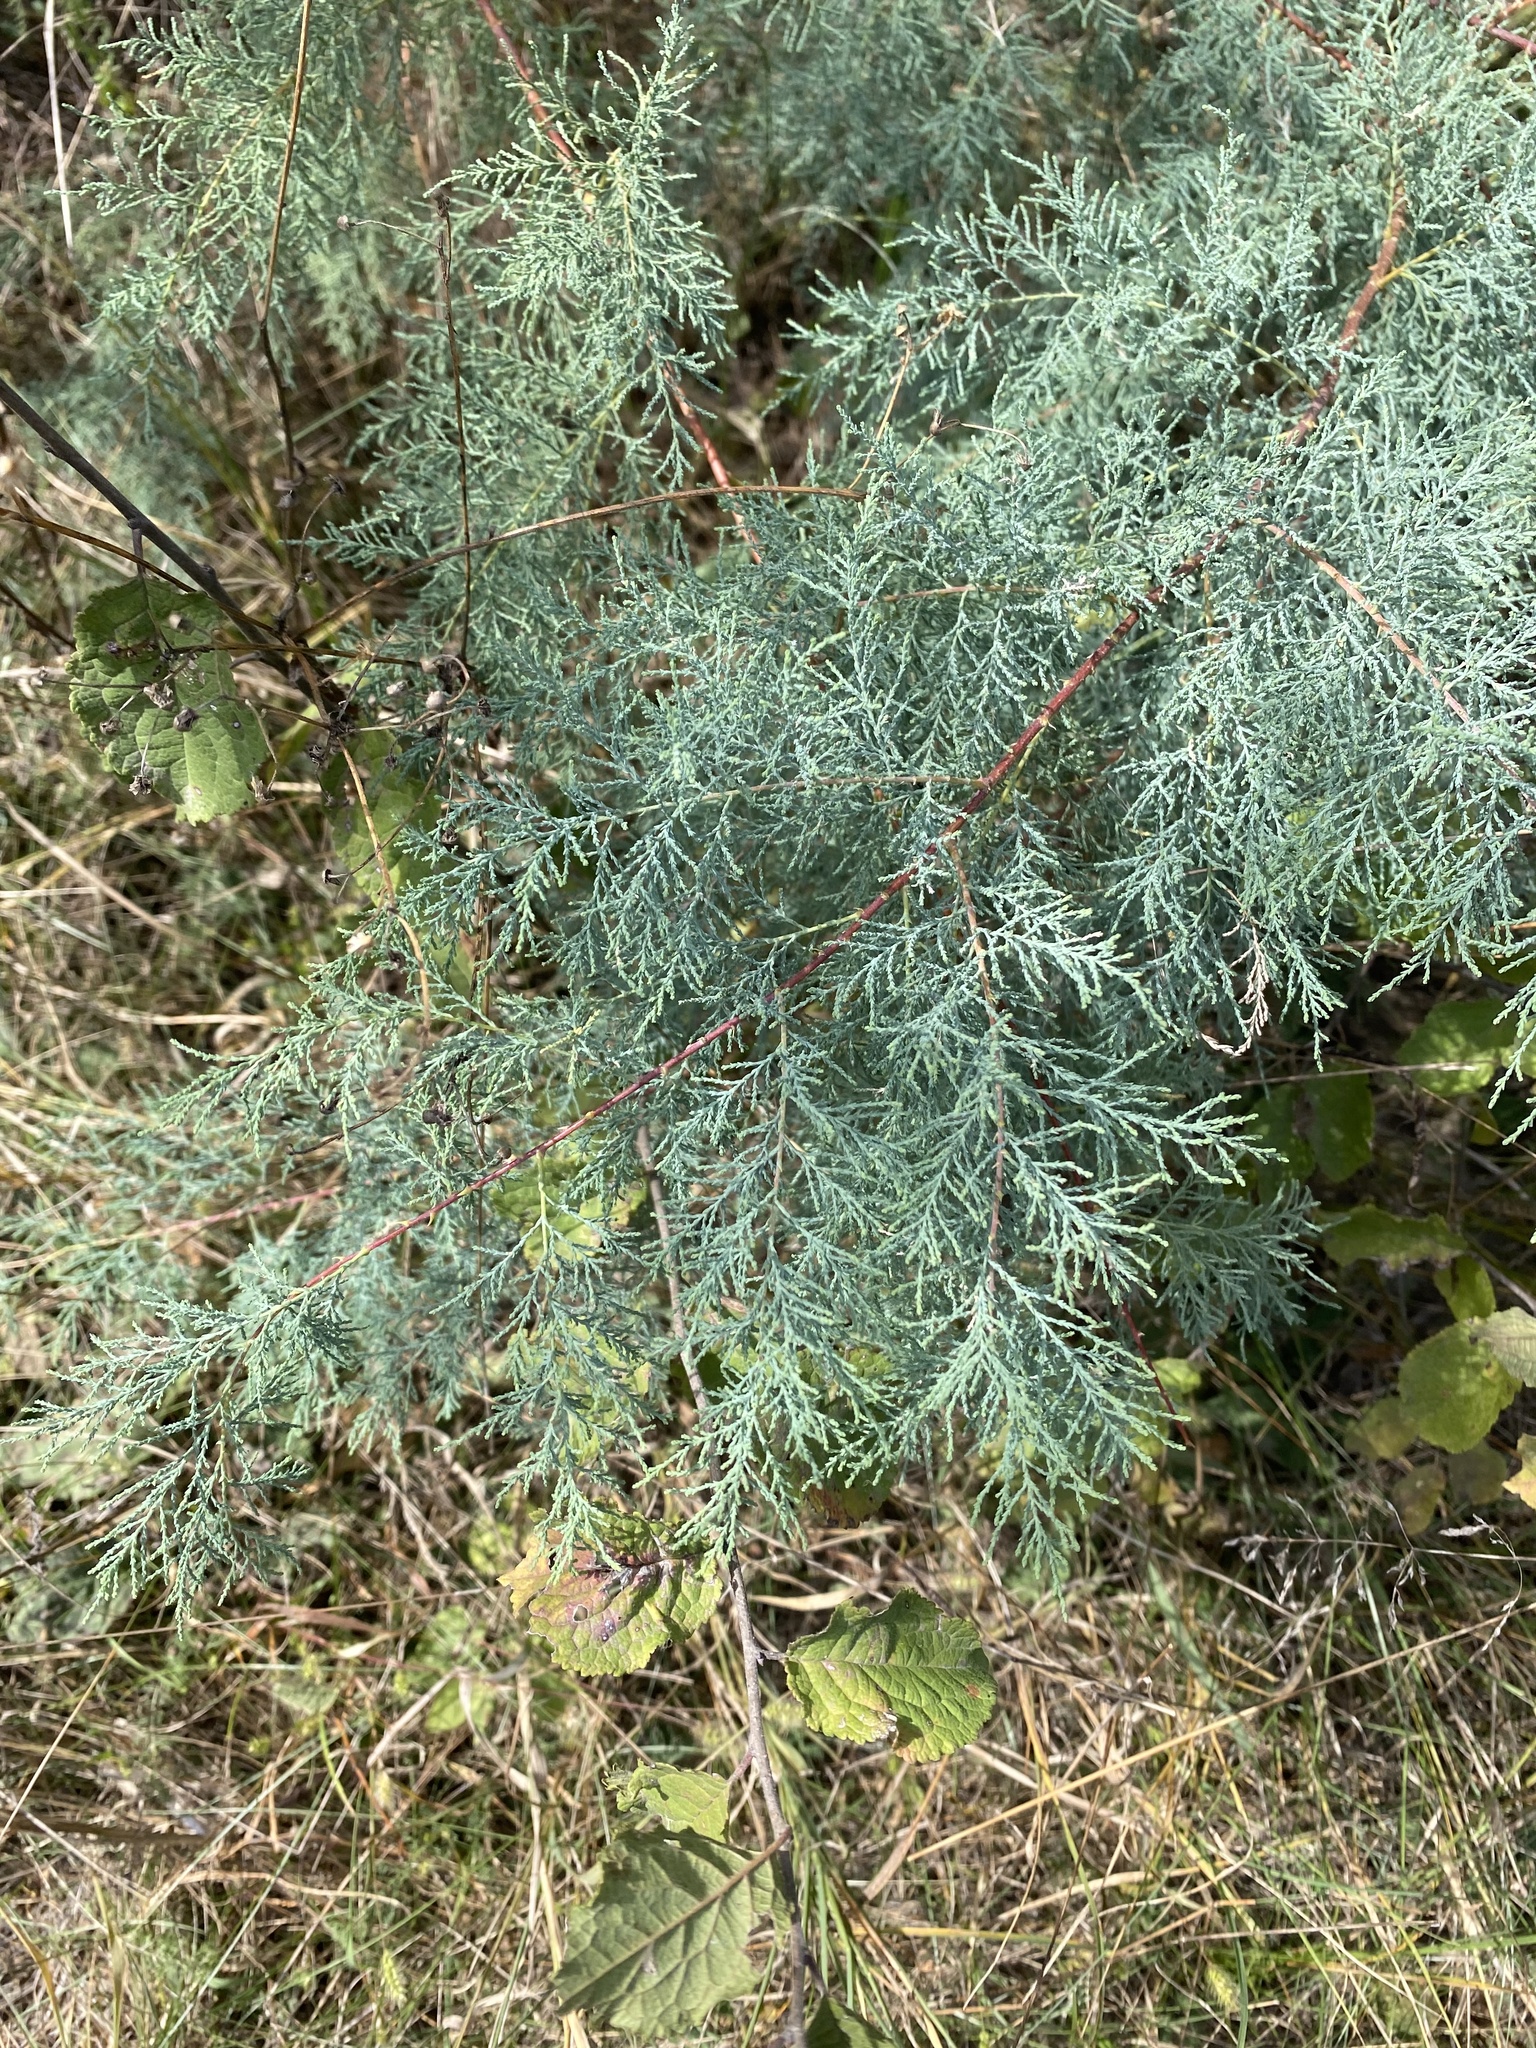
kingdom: Plantae
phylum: Tracheophyta
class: Magnoliopsida
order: Caryophyllales
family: Tamaricaceae
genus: Tamarix
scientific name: Tamarix
